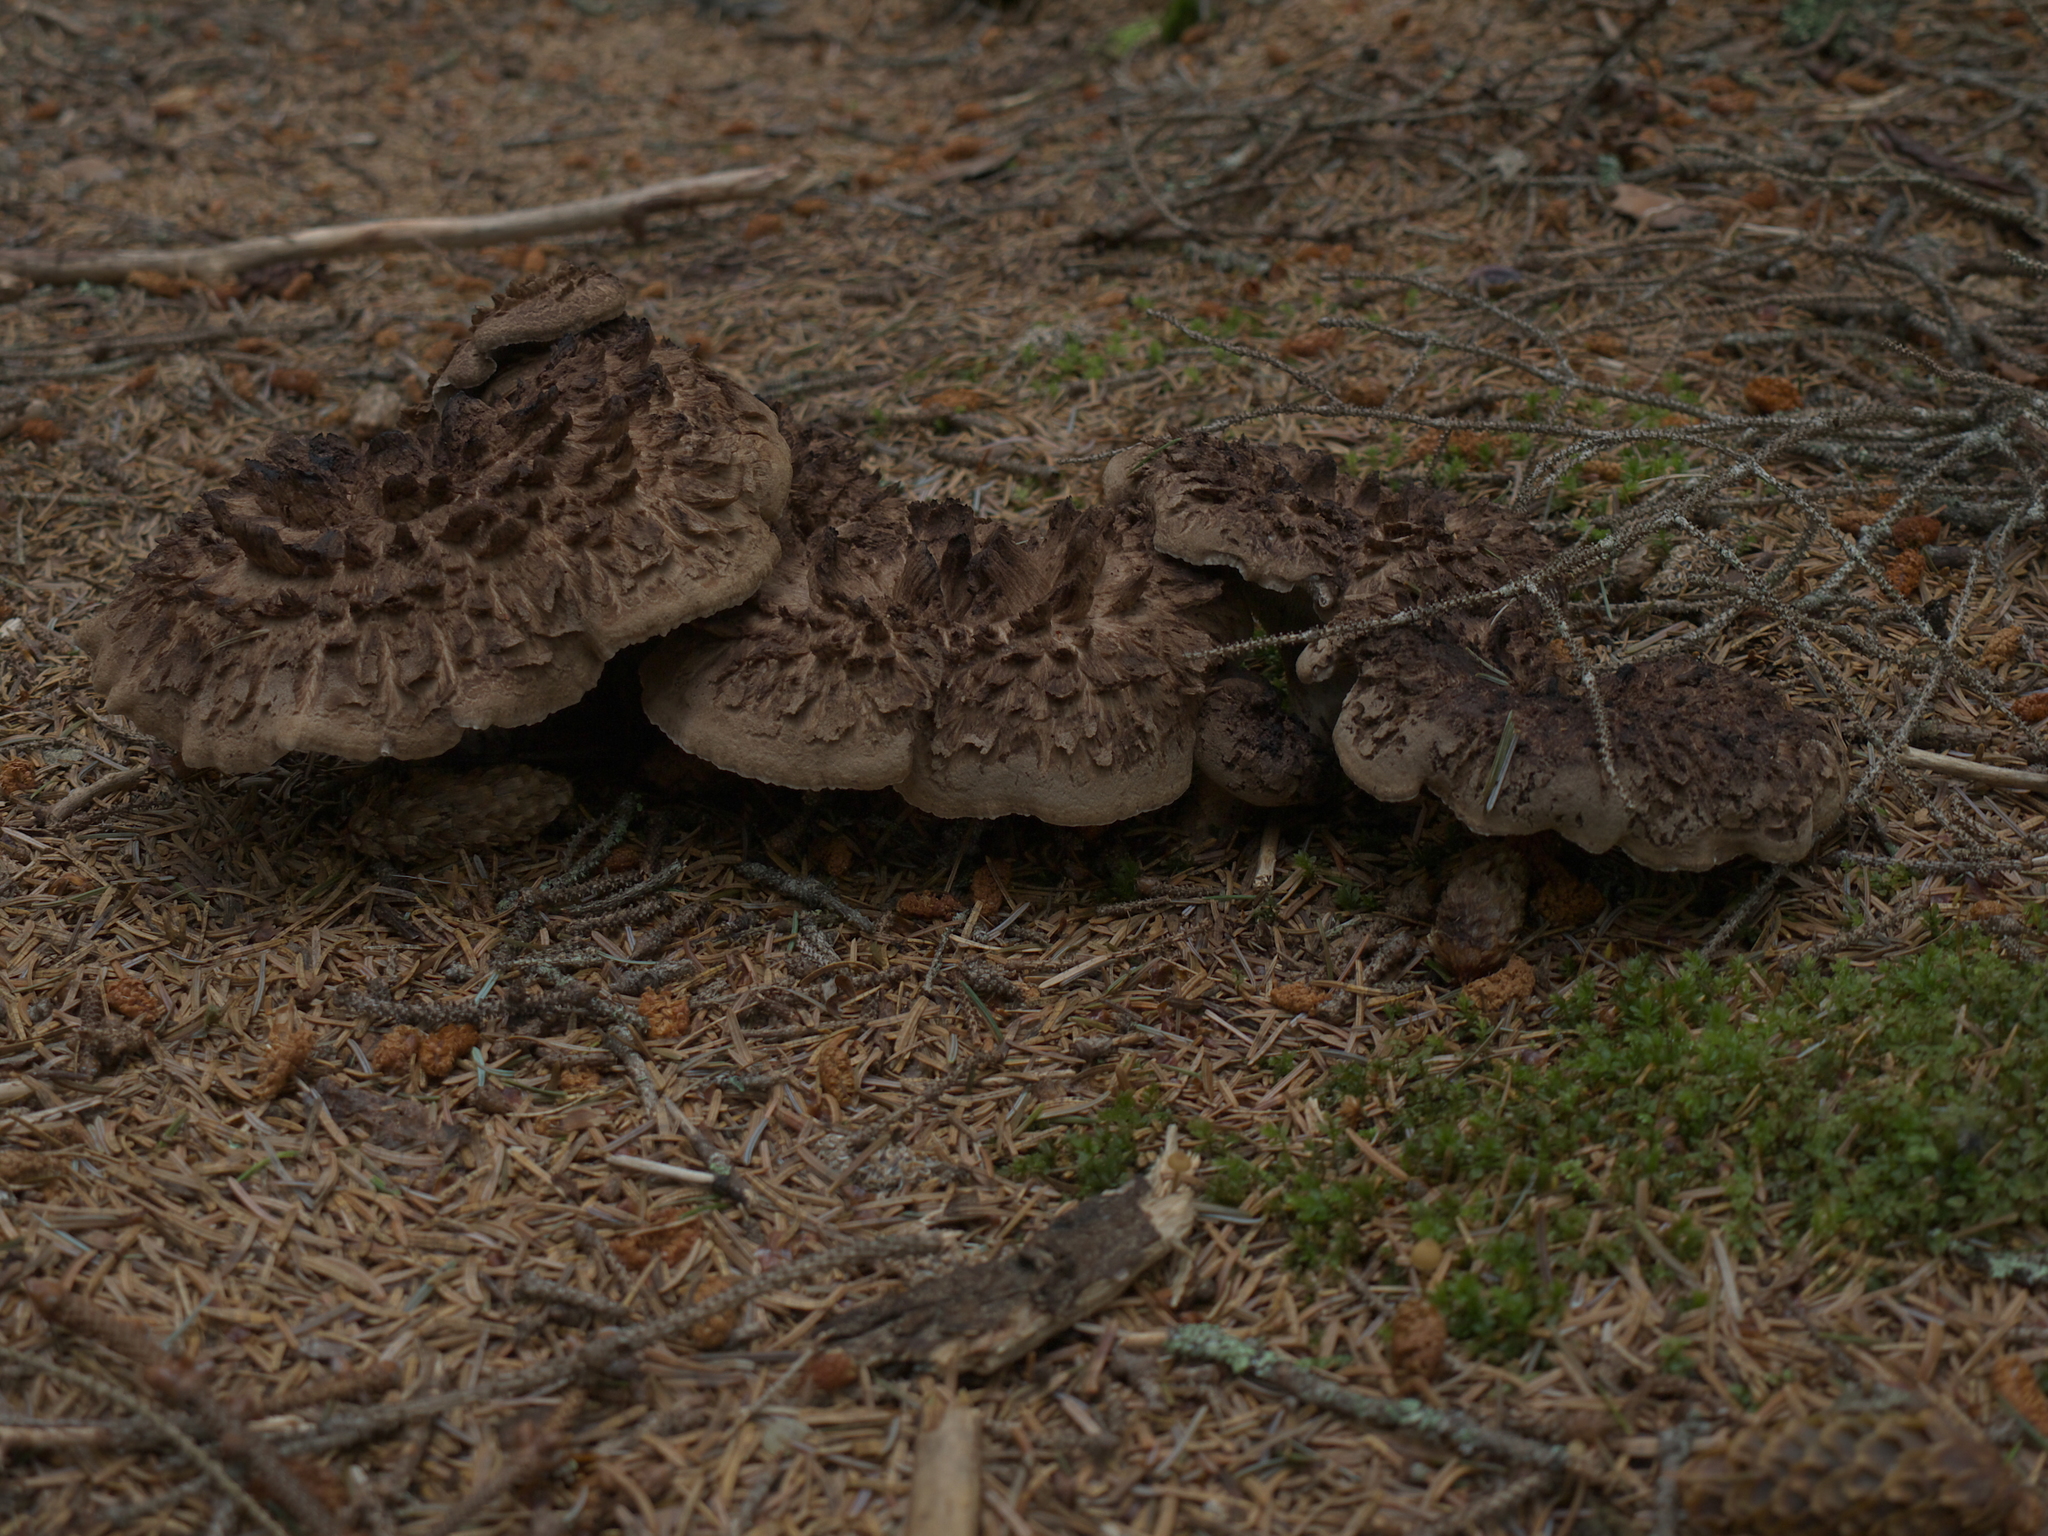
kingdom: Fungi
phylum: Basidiomycota
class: Agaricomycetes
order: Thelephorales
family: Bankeraceae
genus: Sarcodon
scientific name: Sarcodon imbricatus
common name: Shingled hedgehog
